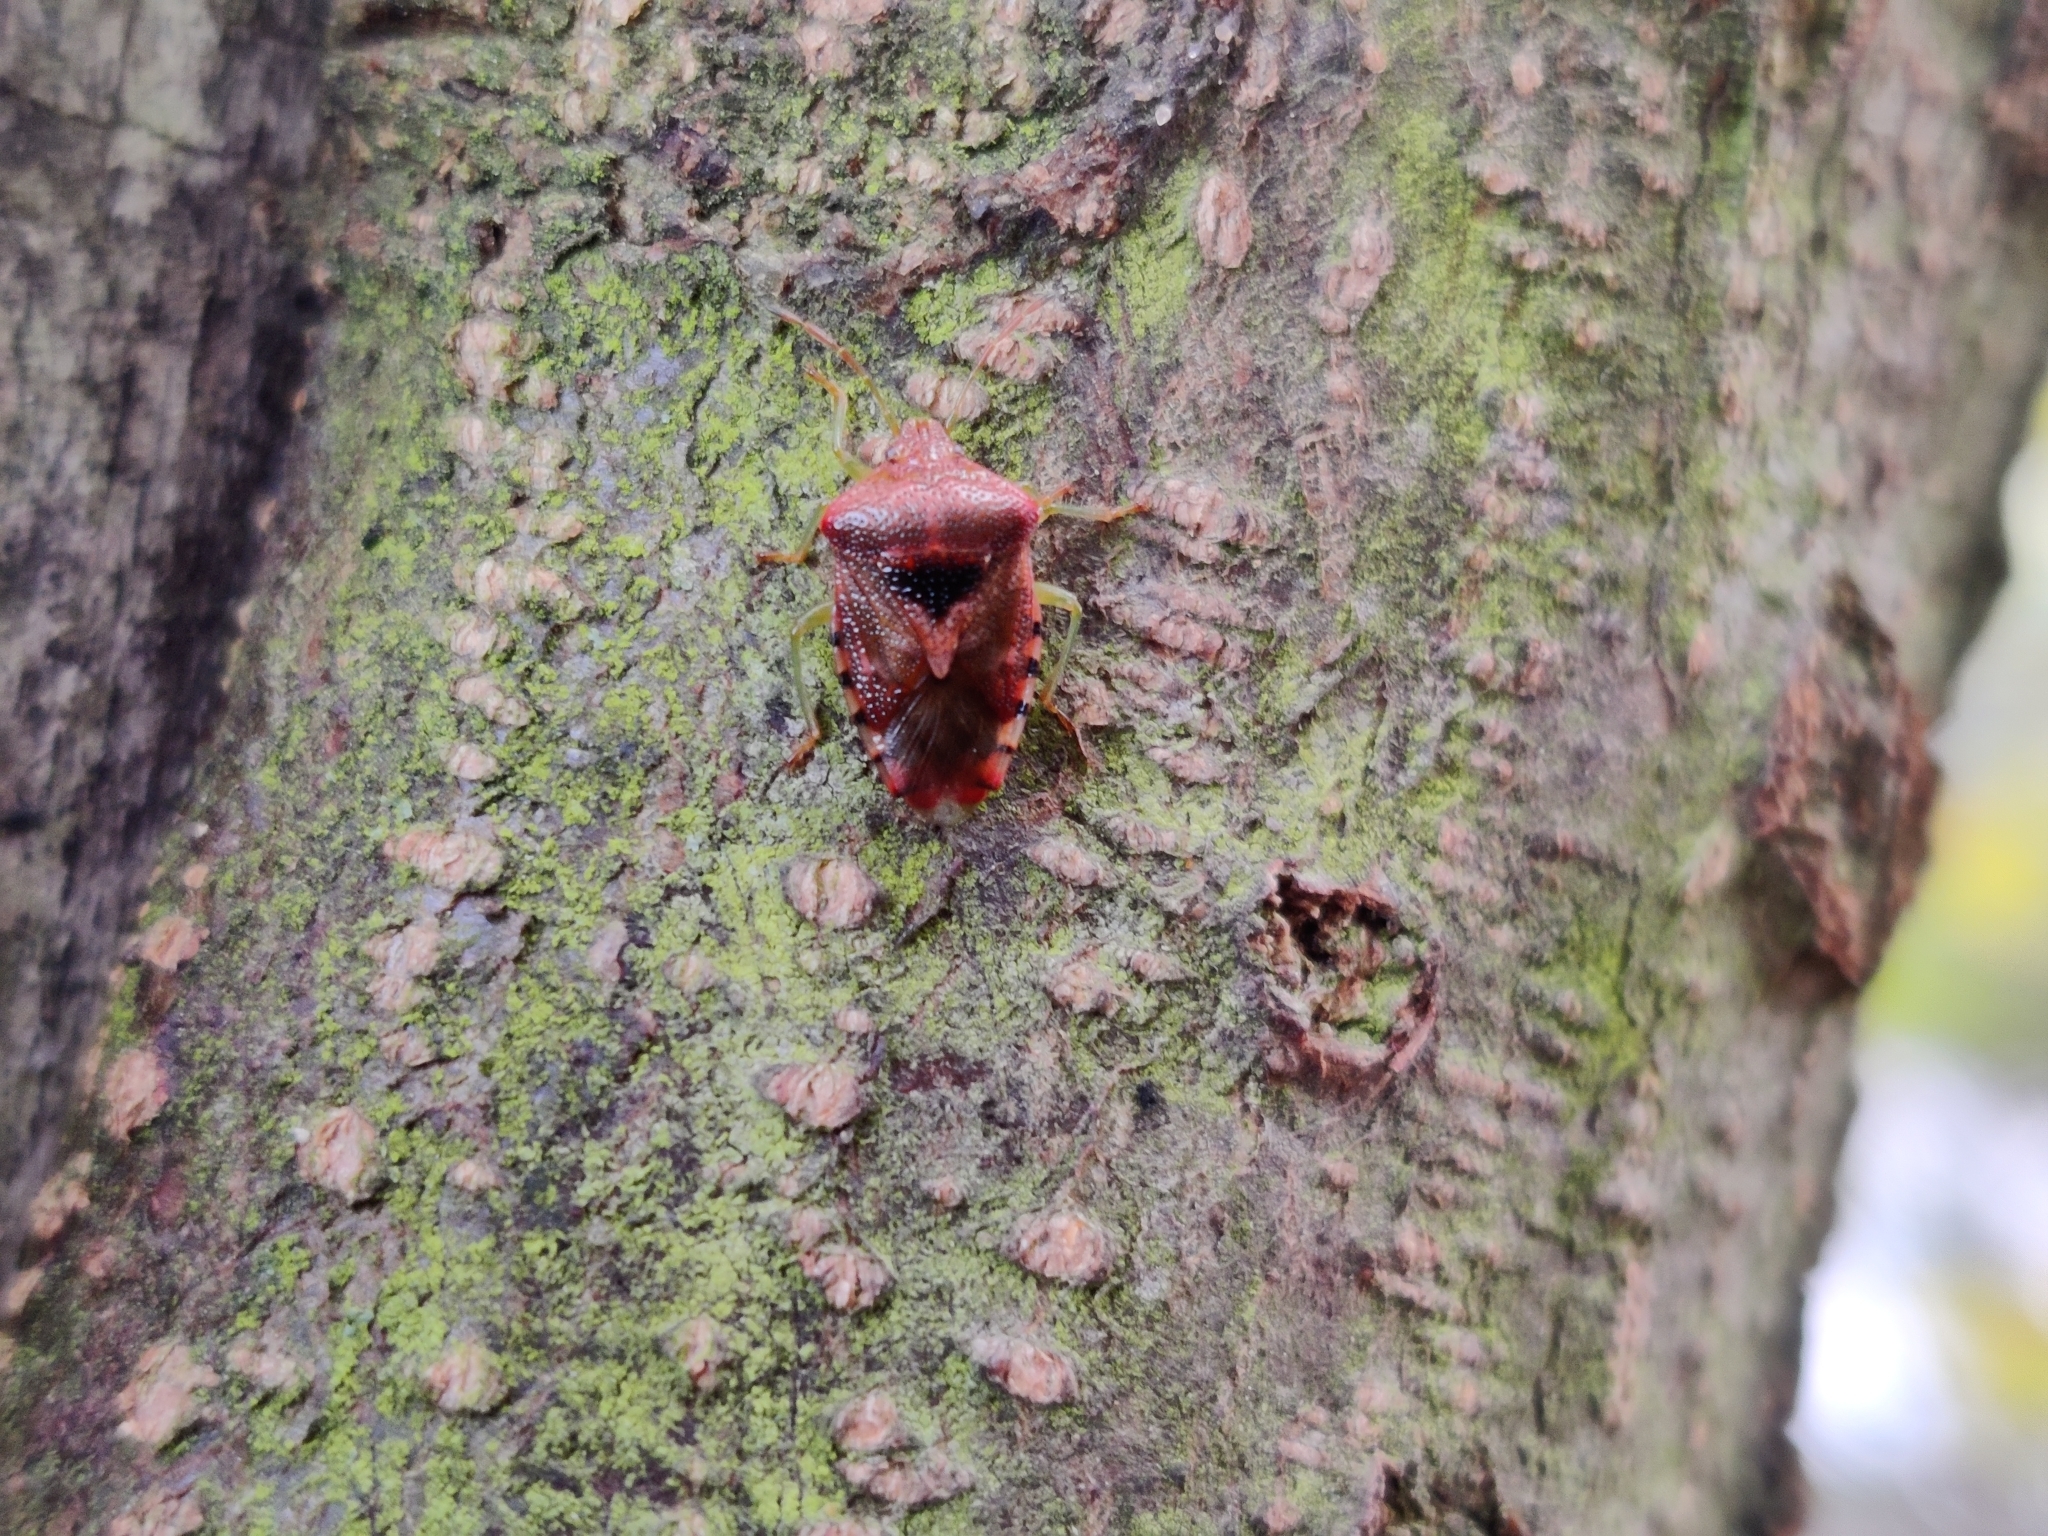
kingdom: Animalia
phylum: Arthropoda
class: Insecta
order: Hemiptera
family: Acanthosomatidae
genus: Elasmucha
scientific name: Elasmucha grisea
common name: Parent bug
